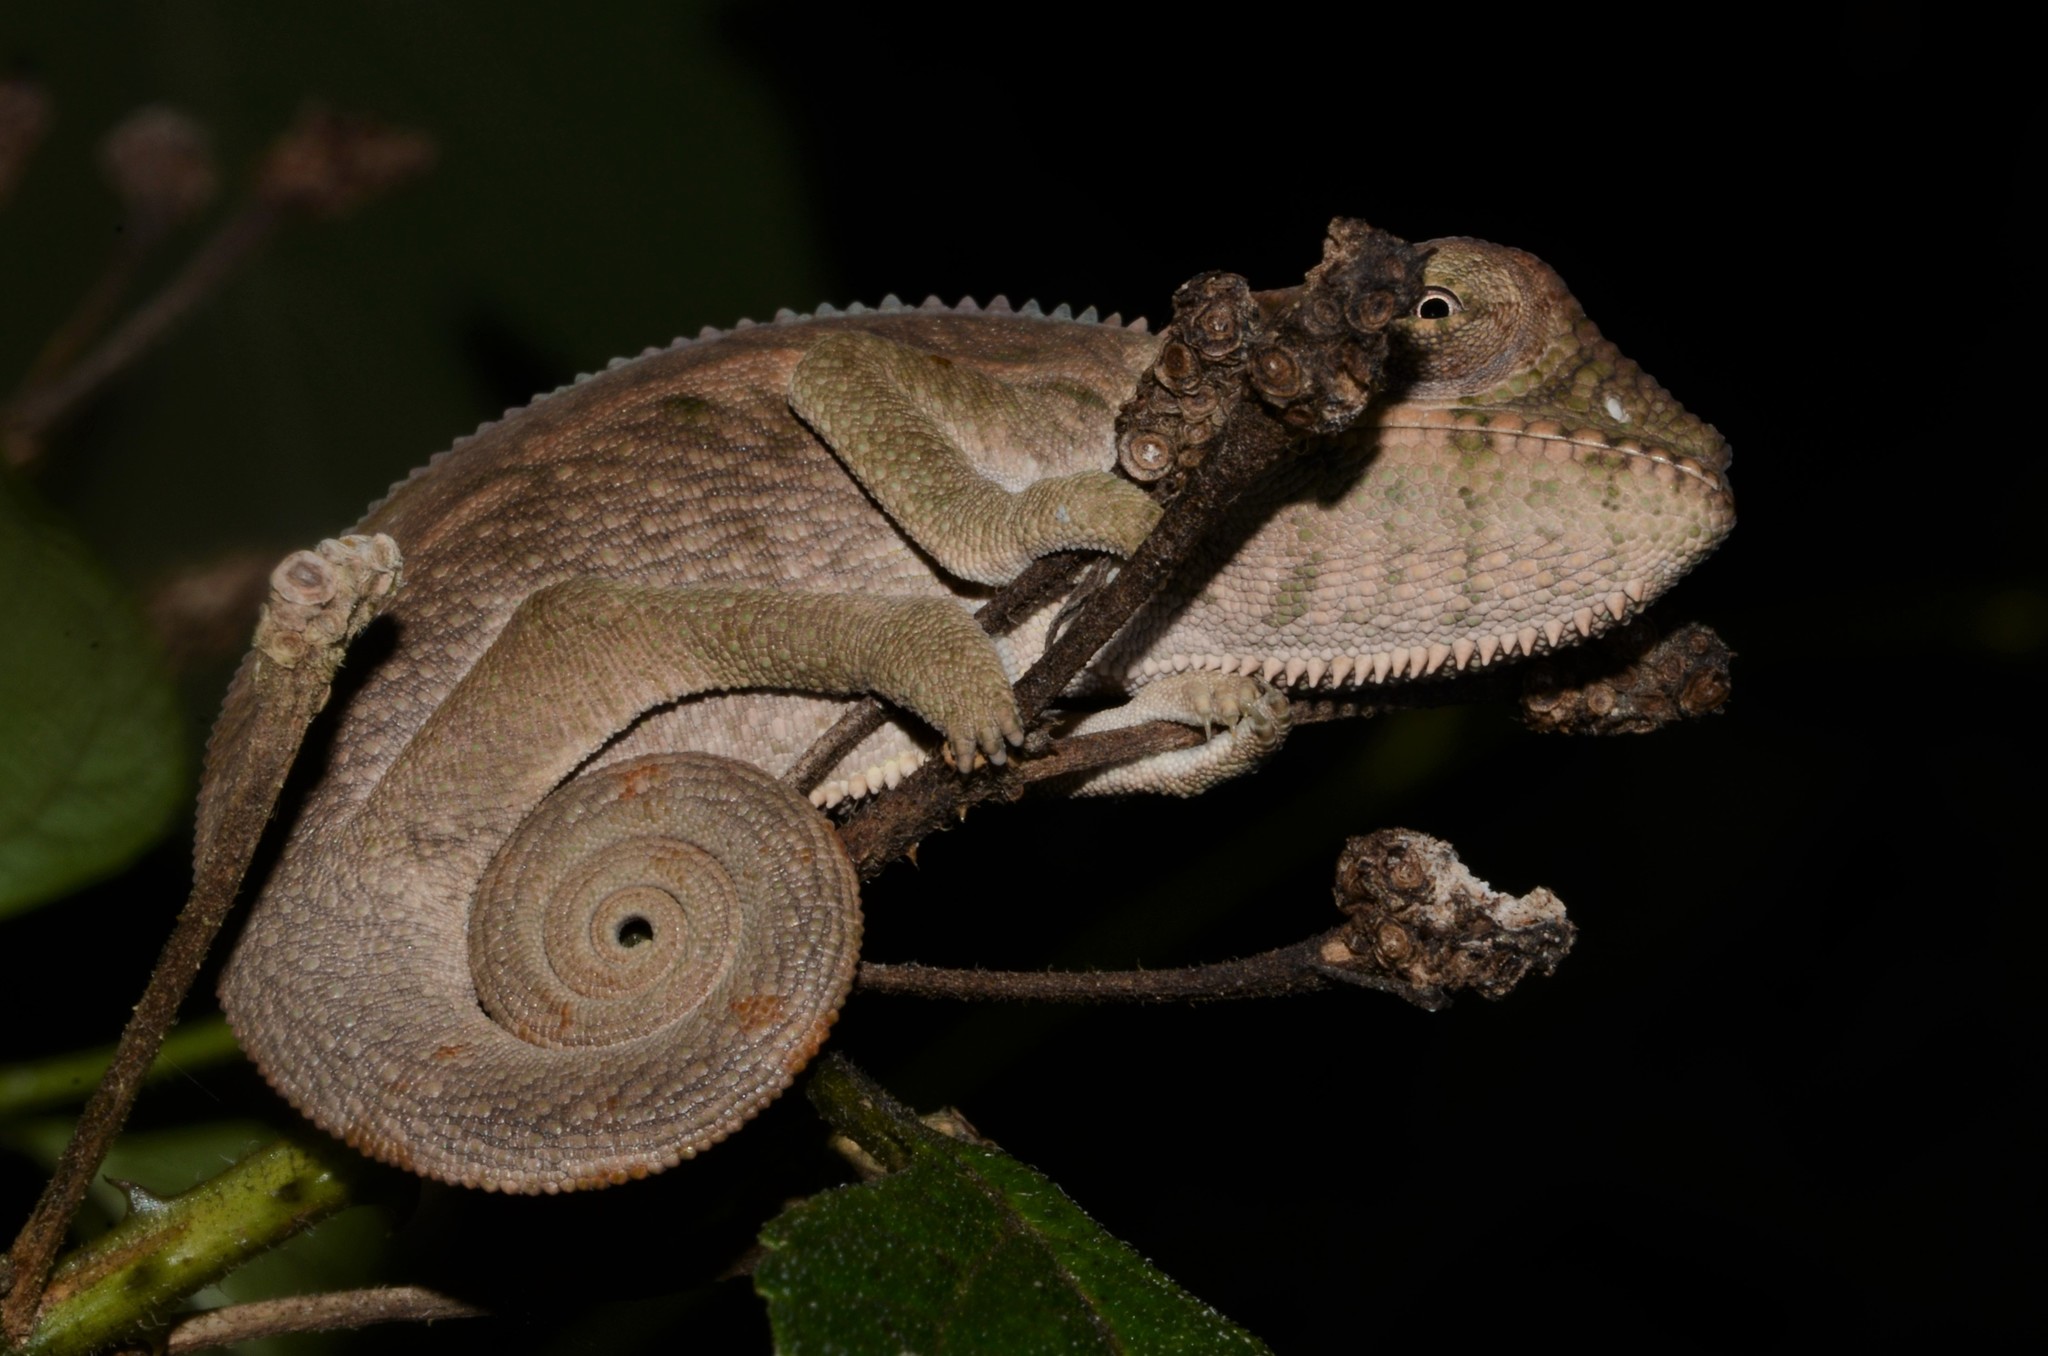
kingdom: Animalia
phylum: Chordata
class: Squamata
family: Chamaeleonidae
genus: Furcifer
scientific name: Furcifer pardalis
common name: Panther chameleon
